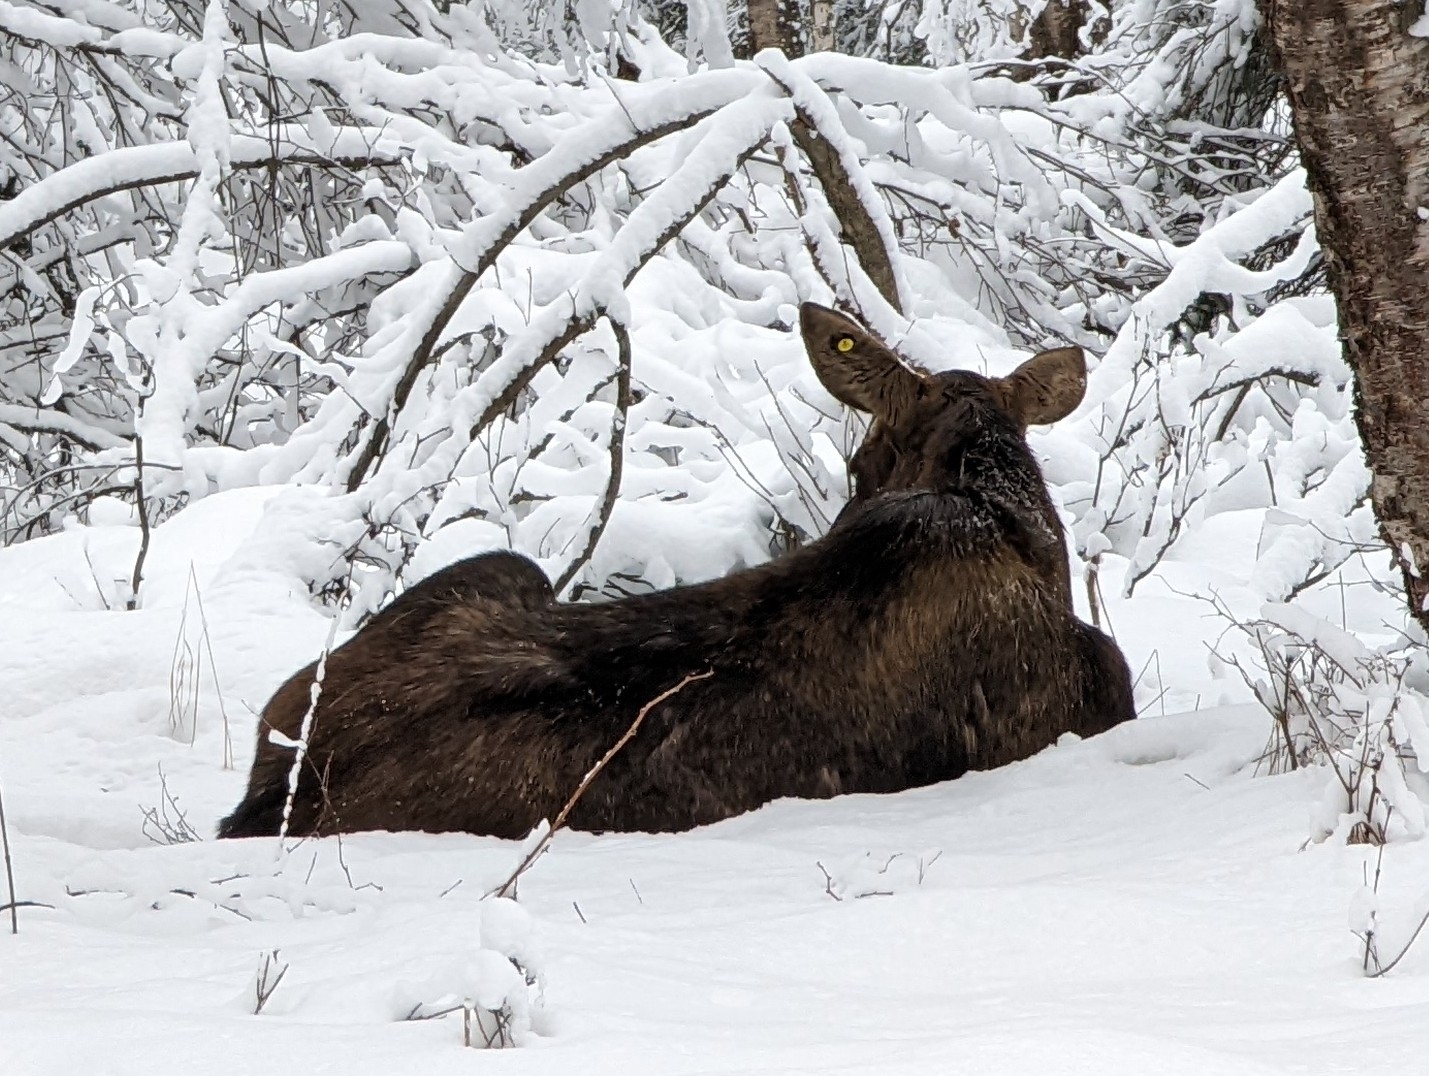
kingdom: Animalia
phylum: Chordata
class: Mammalia
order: Artiodactyla
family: Cervidae
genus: Alces
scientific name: Alces alces
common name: Moose
